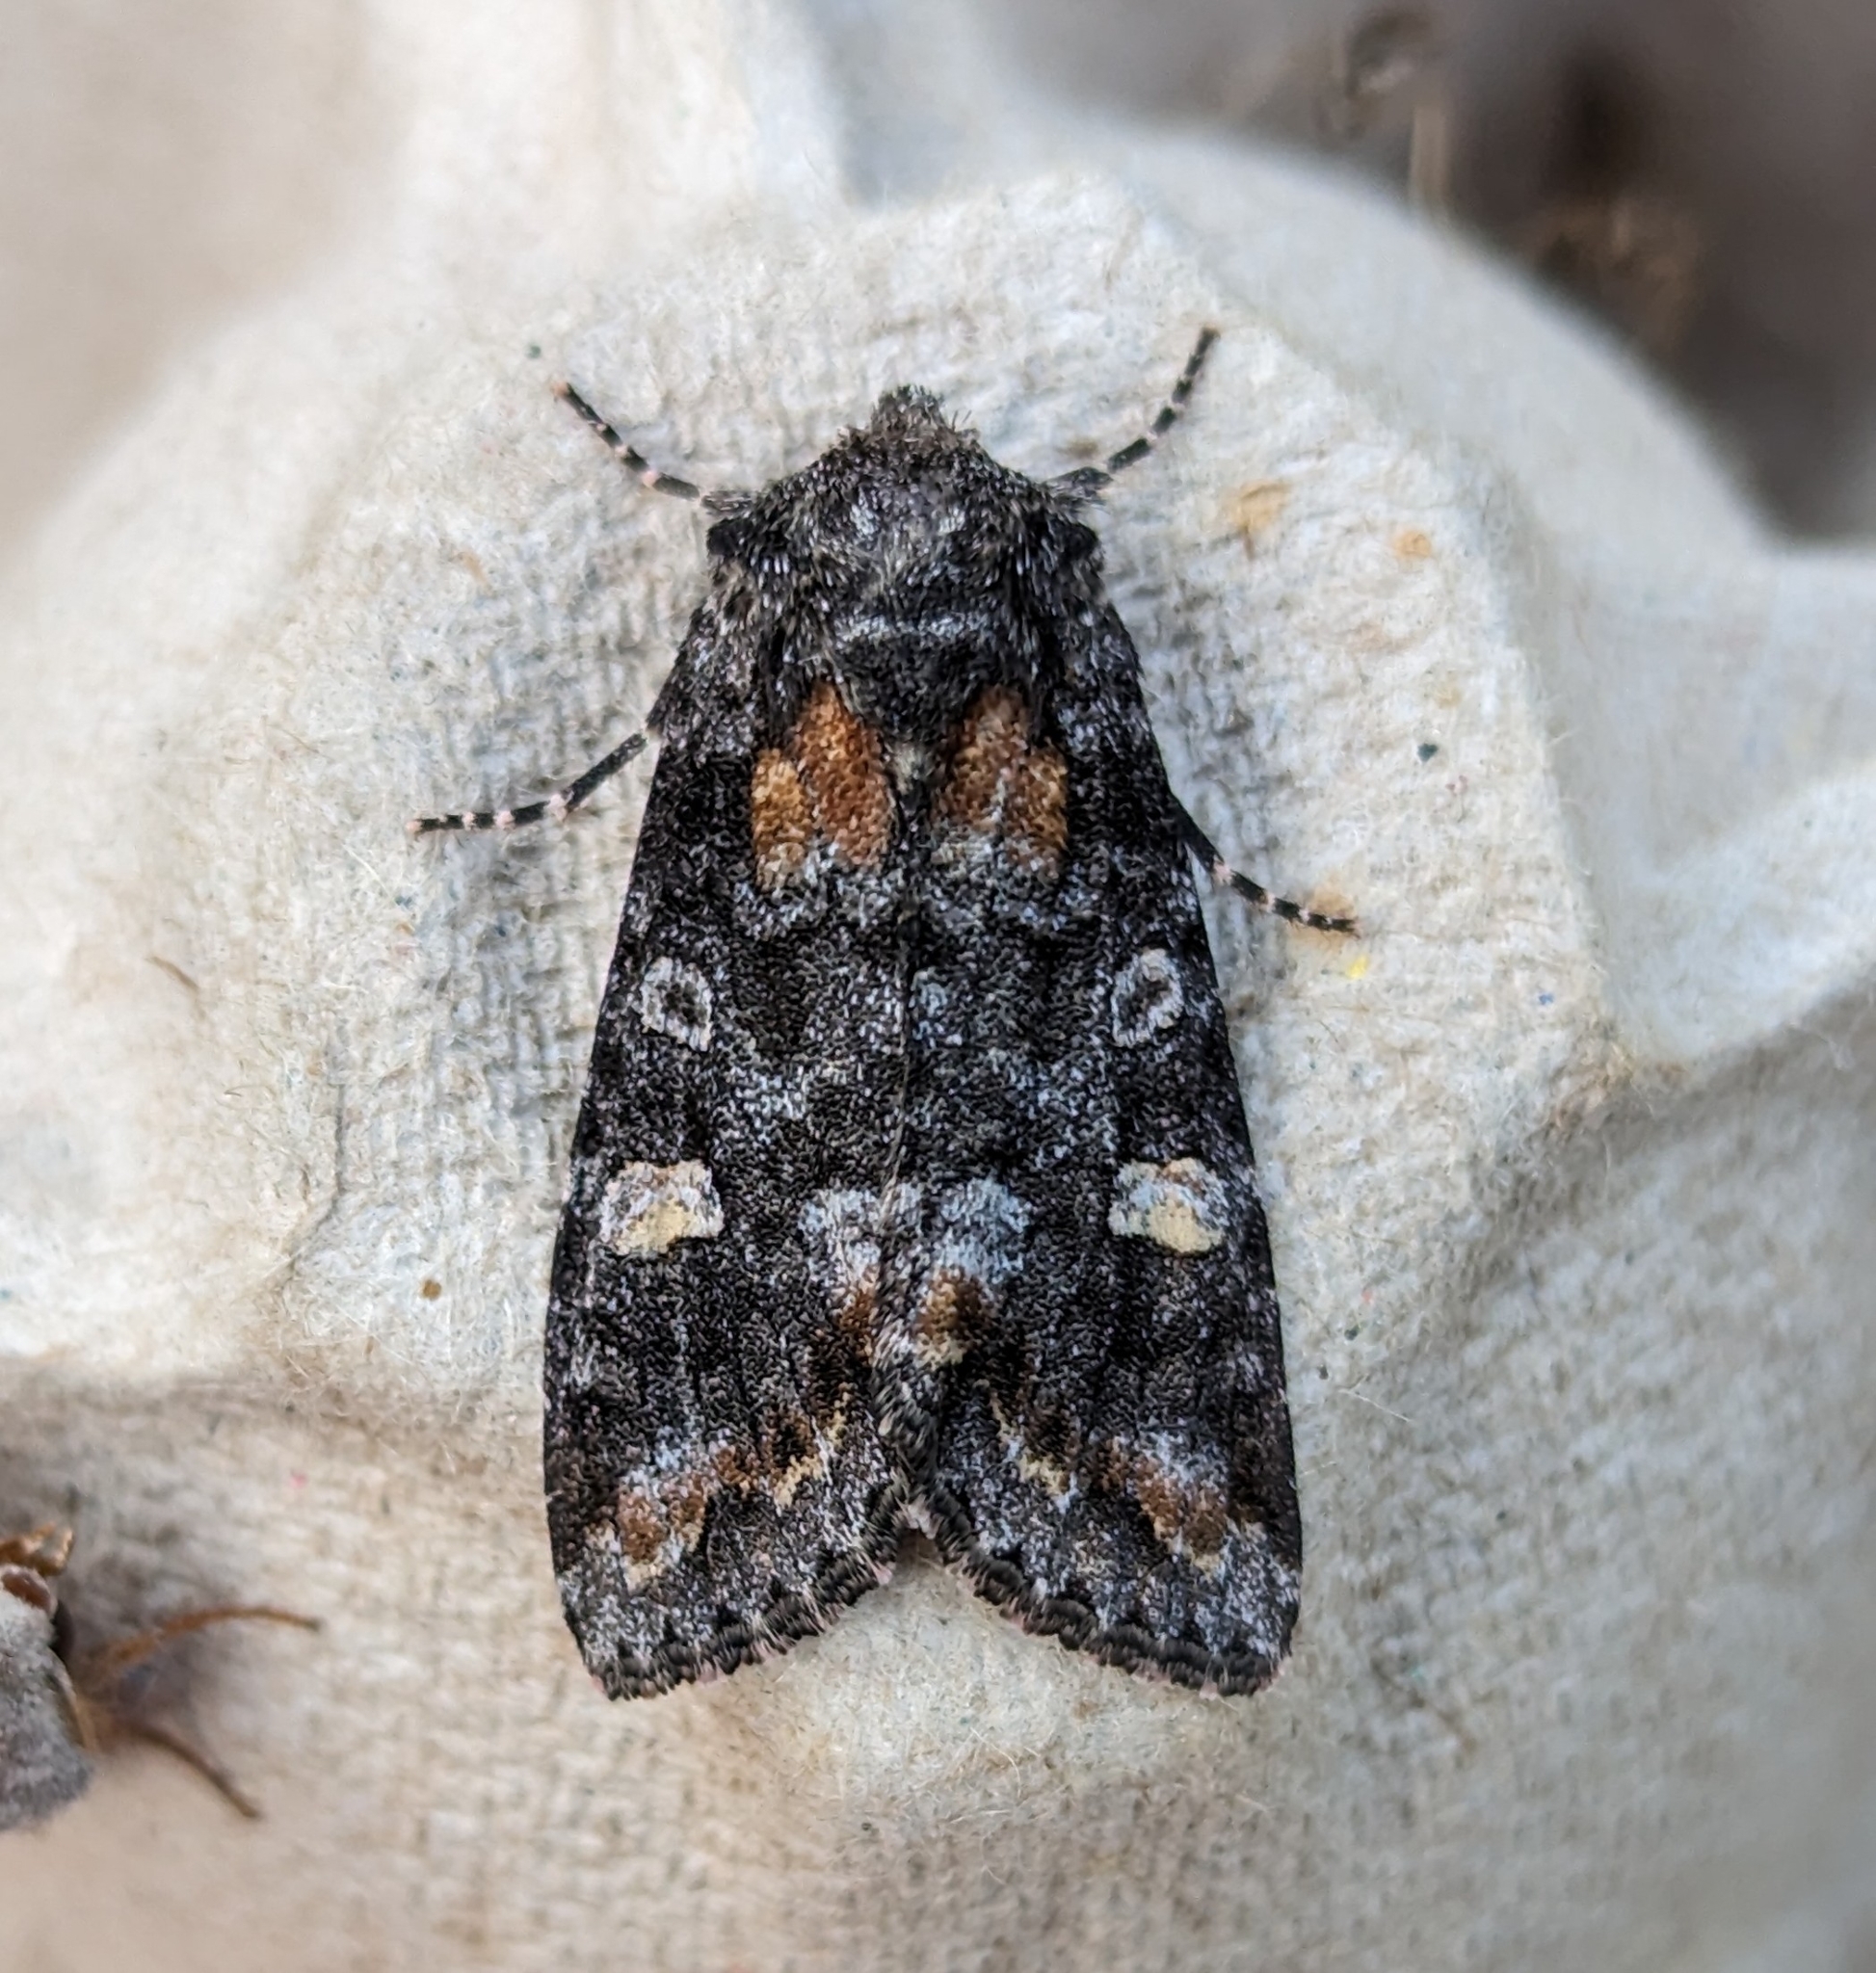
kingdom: Animalia
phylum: Arthropoda
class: Insecta
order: Lepidoptera
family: Noctuidae
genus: Spiramater
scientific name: Spiramater lutra
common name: Otter spiramater moth
